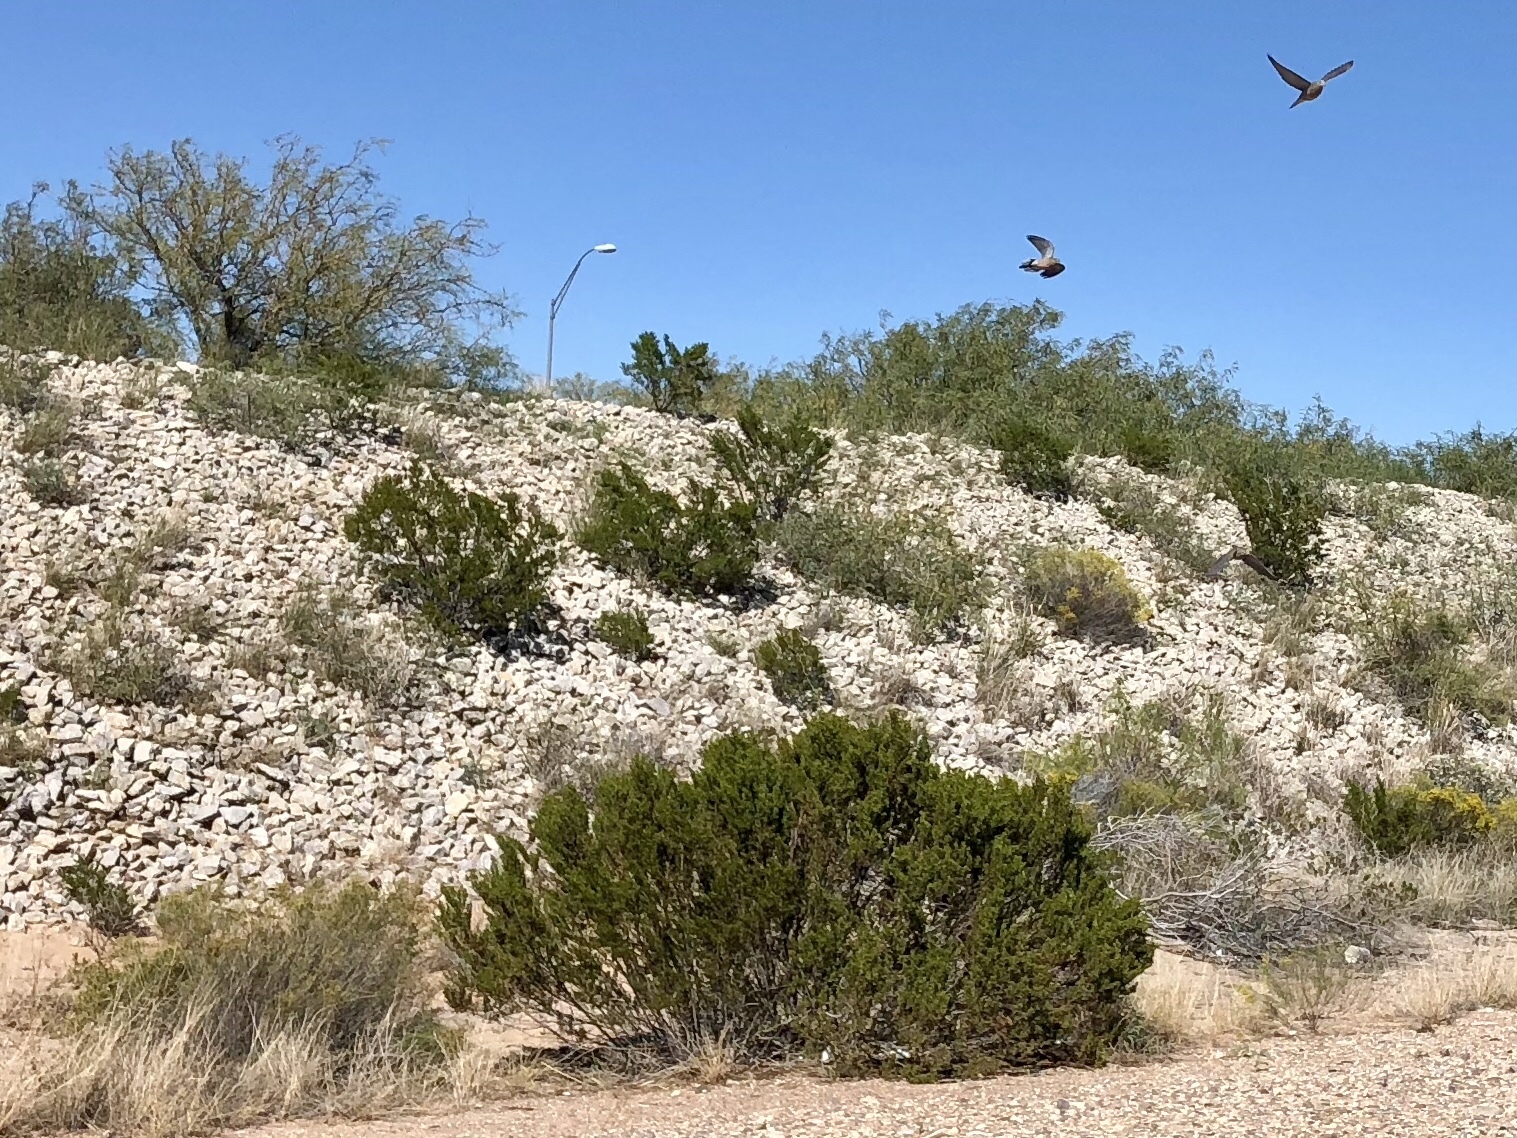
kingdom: Plantae
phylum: Tracheophyta
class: Magnoliopsida
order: Zygophyllales
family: Zygophyllaceae
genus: Larrea
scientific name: Larrea tridentata
